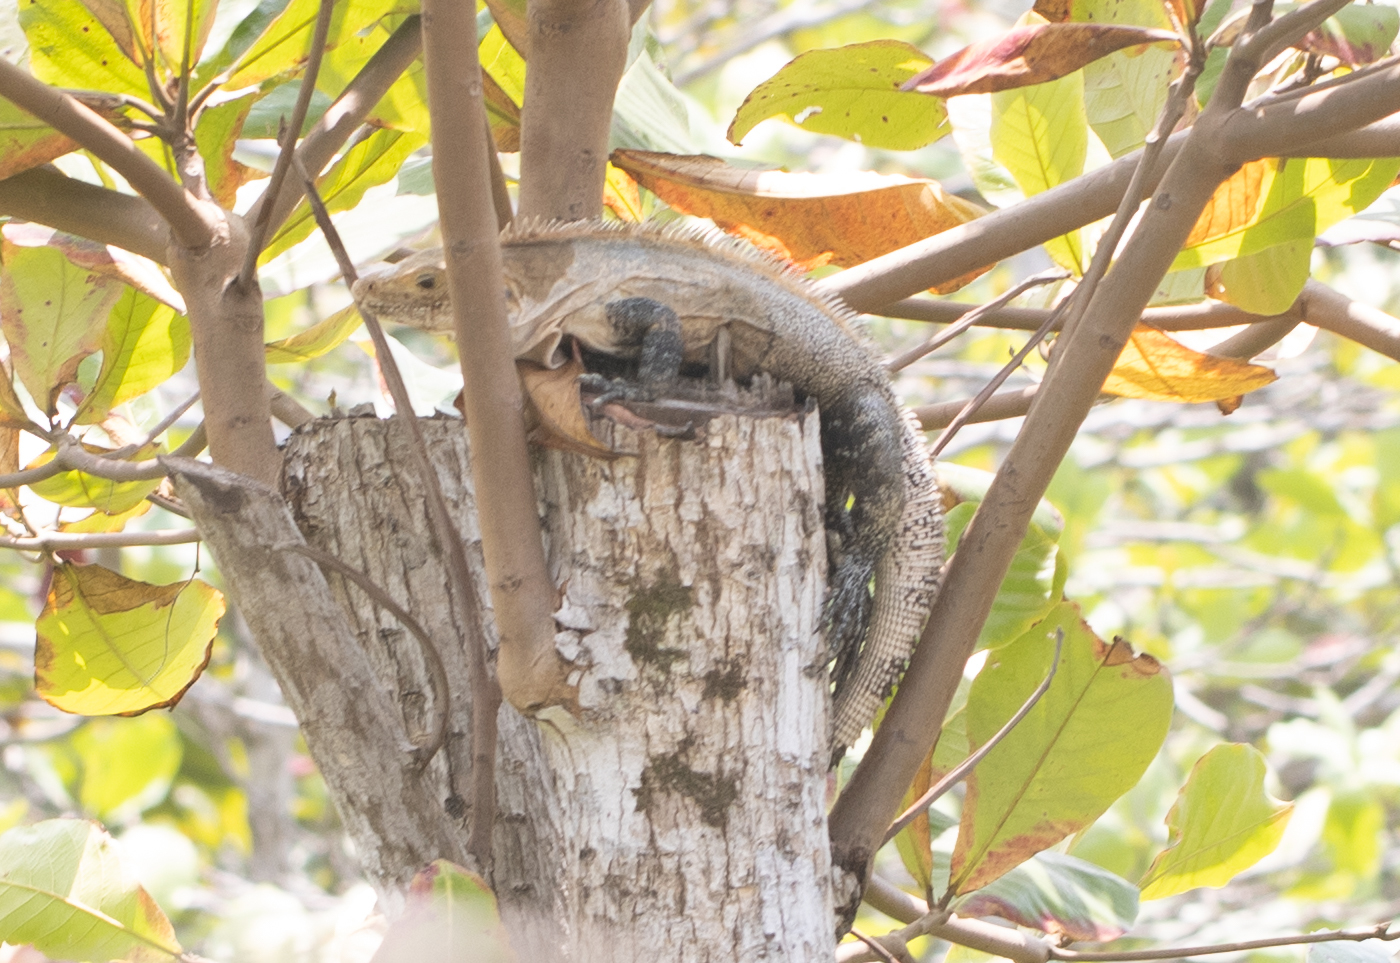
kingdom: Animalia
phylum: Chordata
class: Squamata
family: Iguanidae
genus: Ctenosaura
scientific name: Ctenosaura similis
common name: Black spiny-tailed iguana
